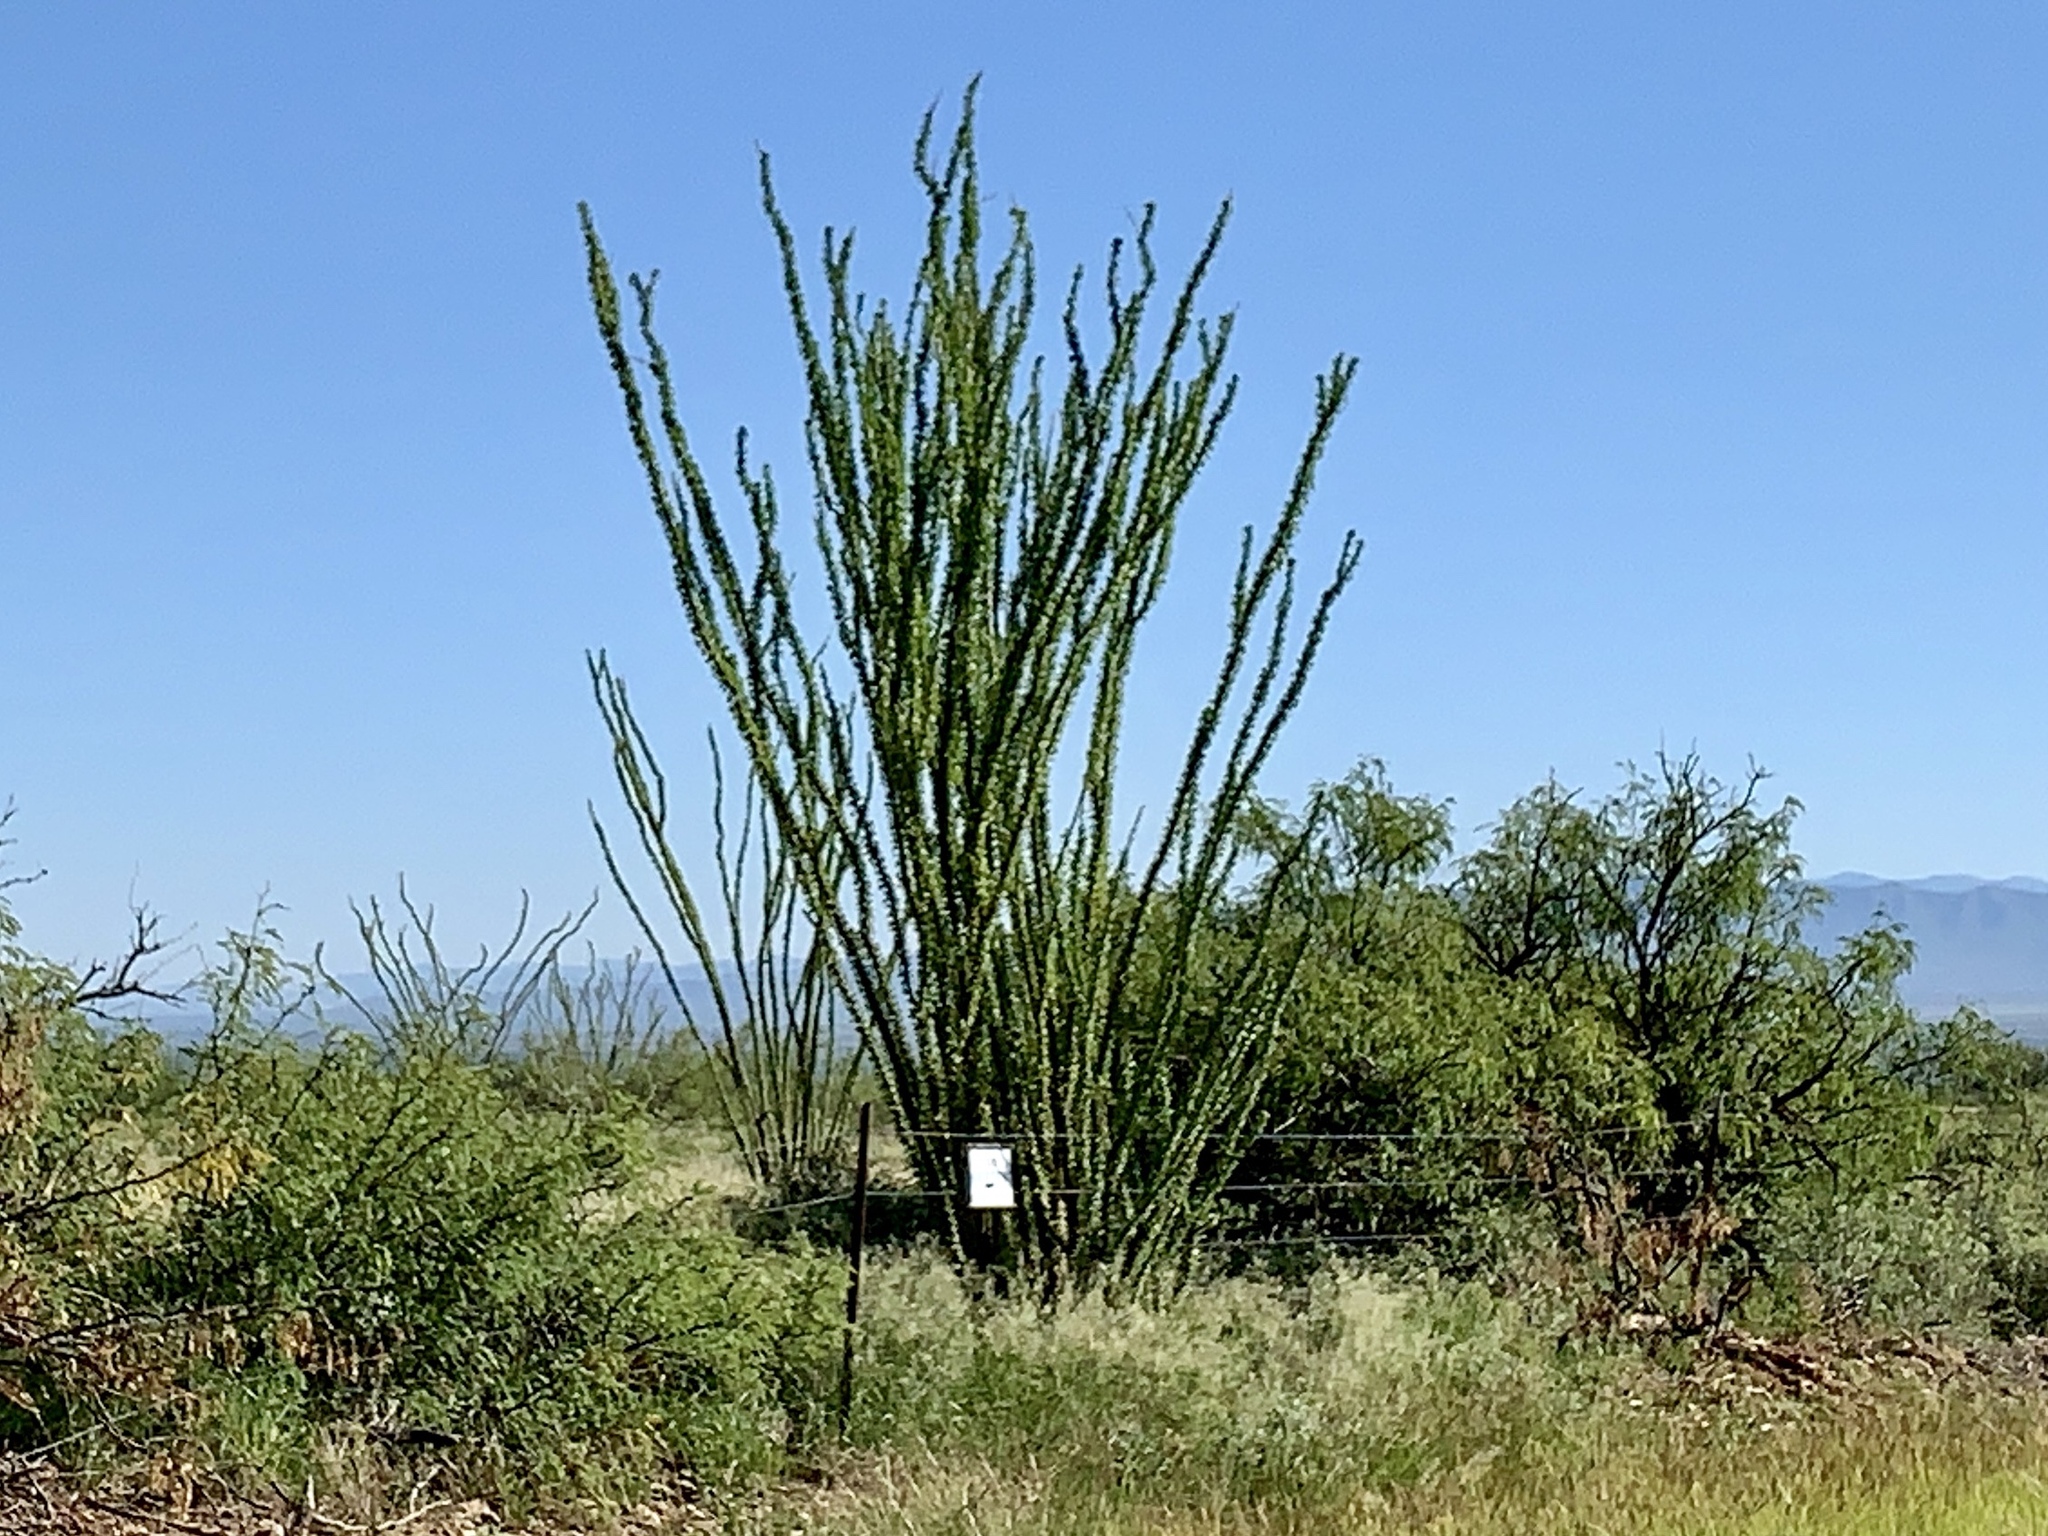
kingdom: Plantae
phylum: Tracheophyta
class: Magnoliopsida
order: Ericales
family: Fouquieriaceae
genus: Fouquieria
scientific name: Fouquieria splendens
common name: Vine-cactus
